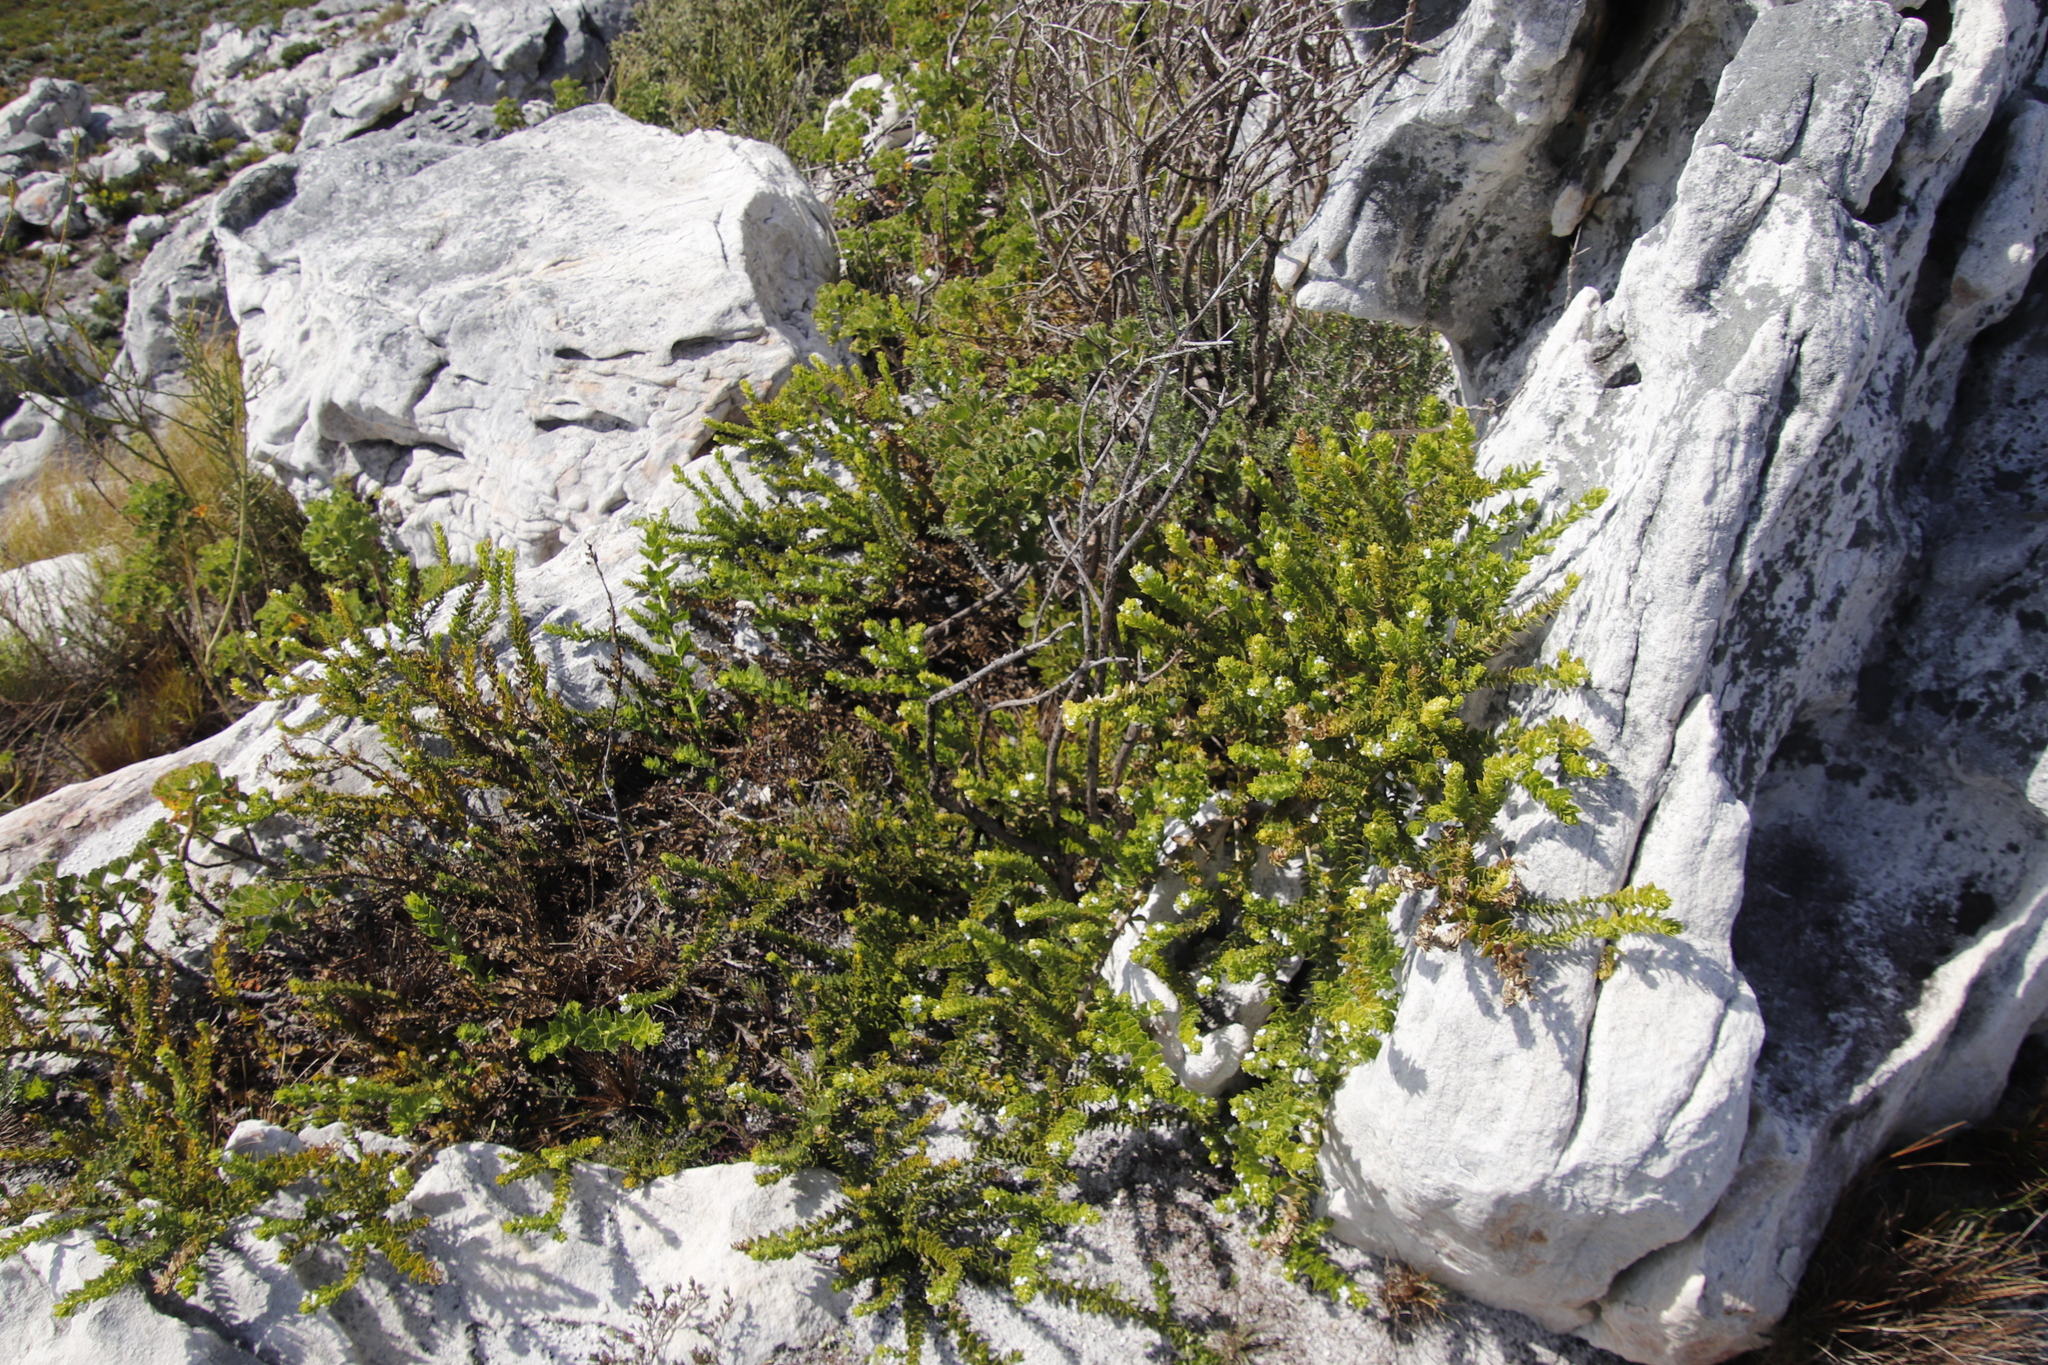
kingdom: Plantae
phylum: Tracheophyta
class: Magnoliopsida
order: Lamiales
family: Scrophulariaceae
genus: Oftia
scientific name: Oftia africana
